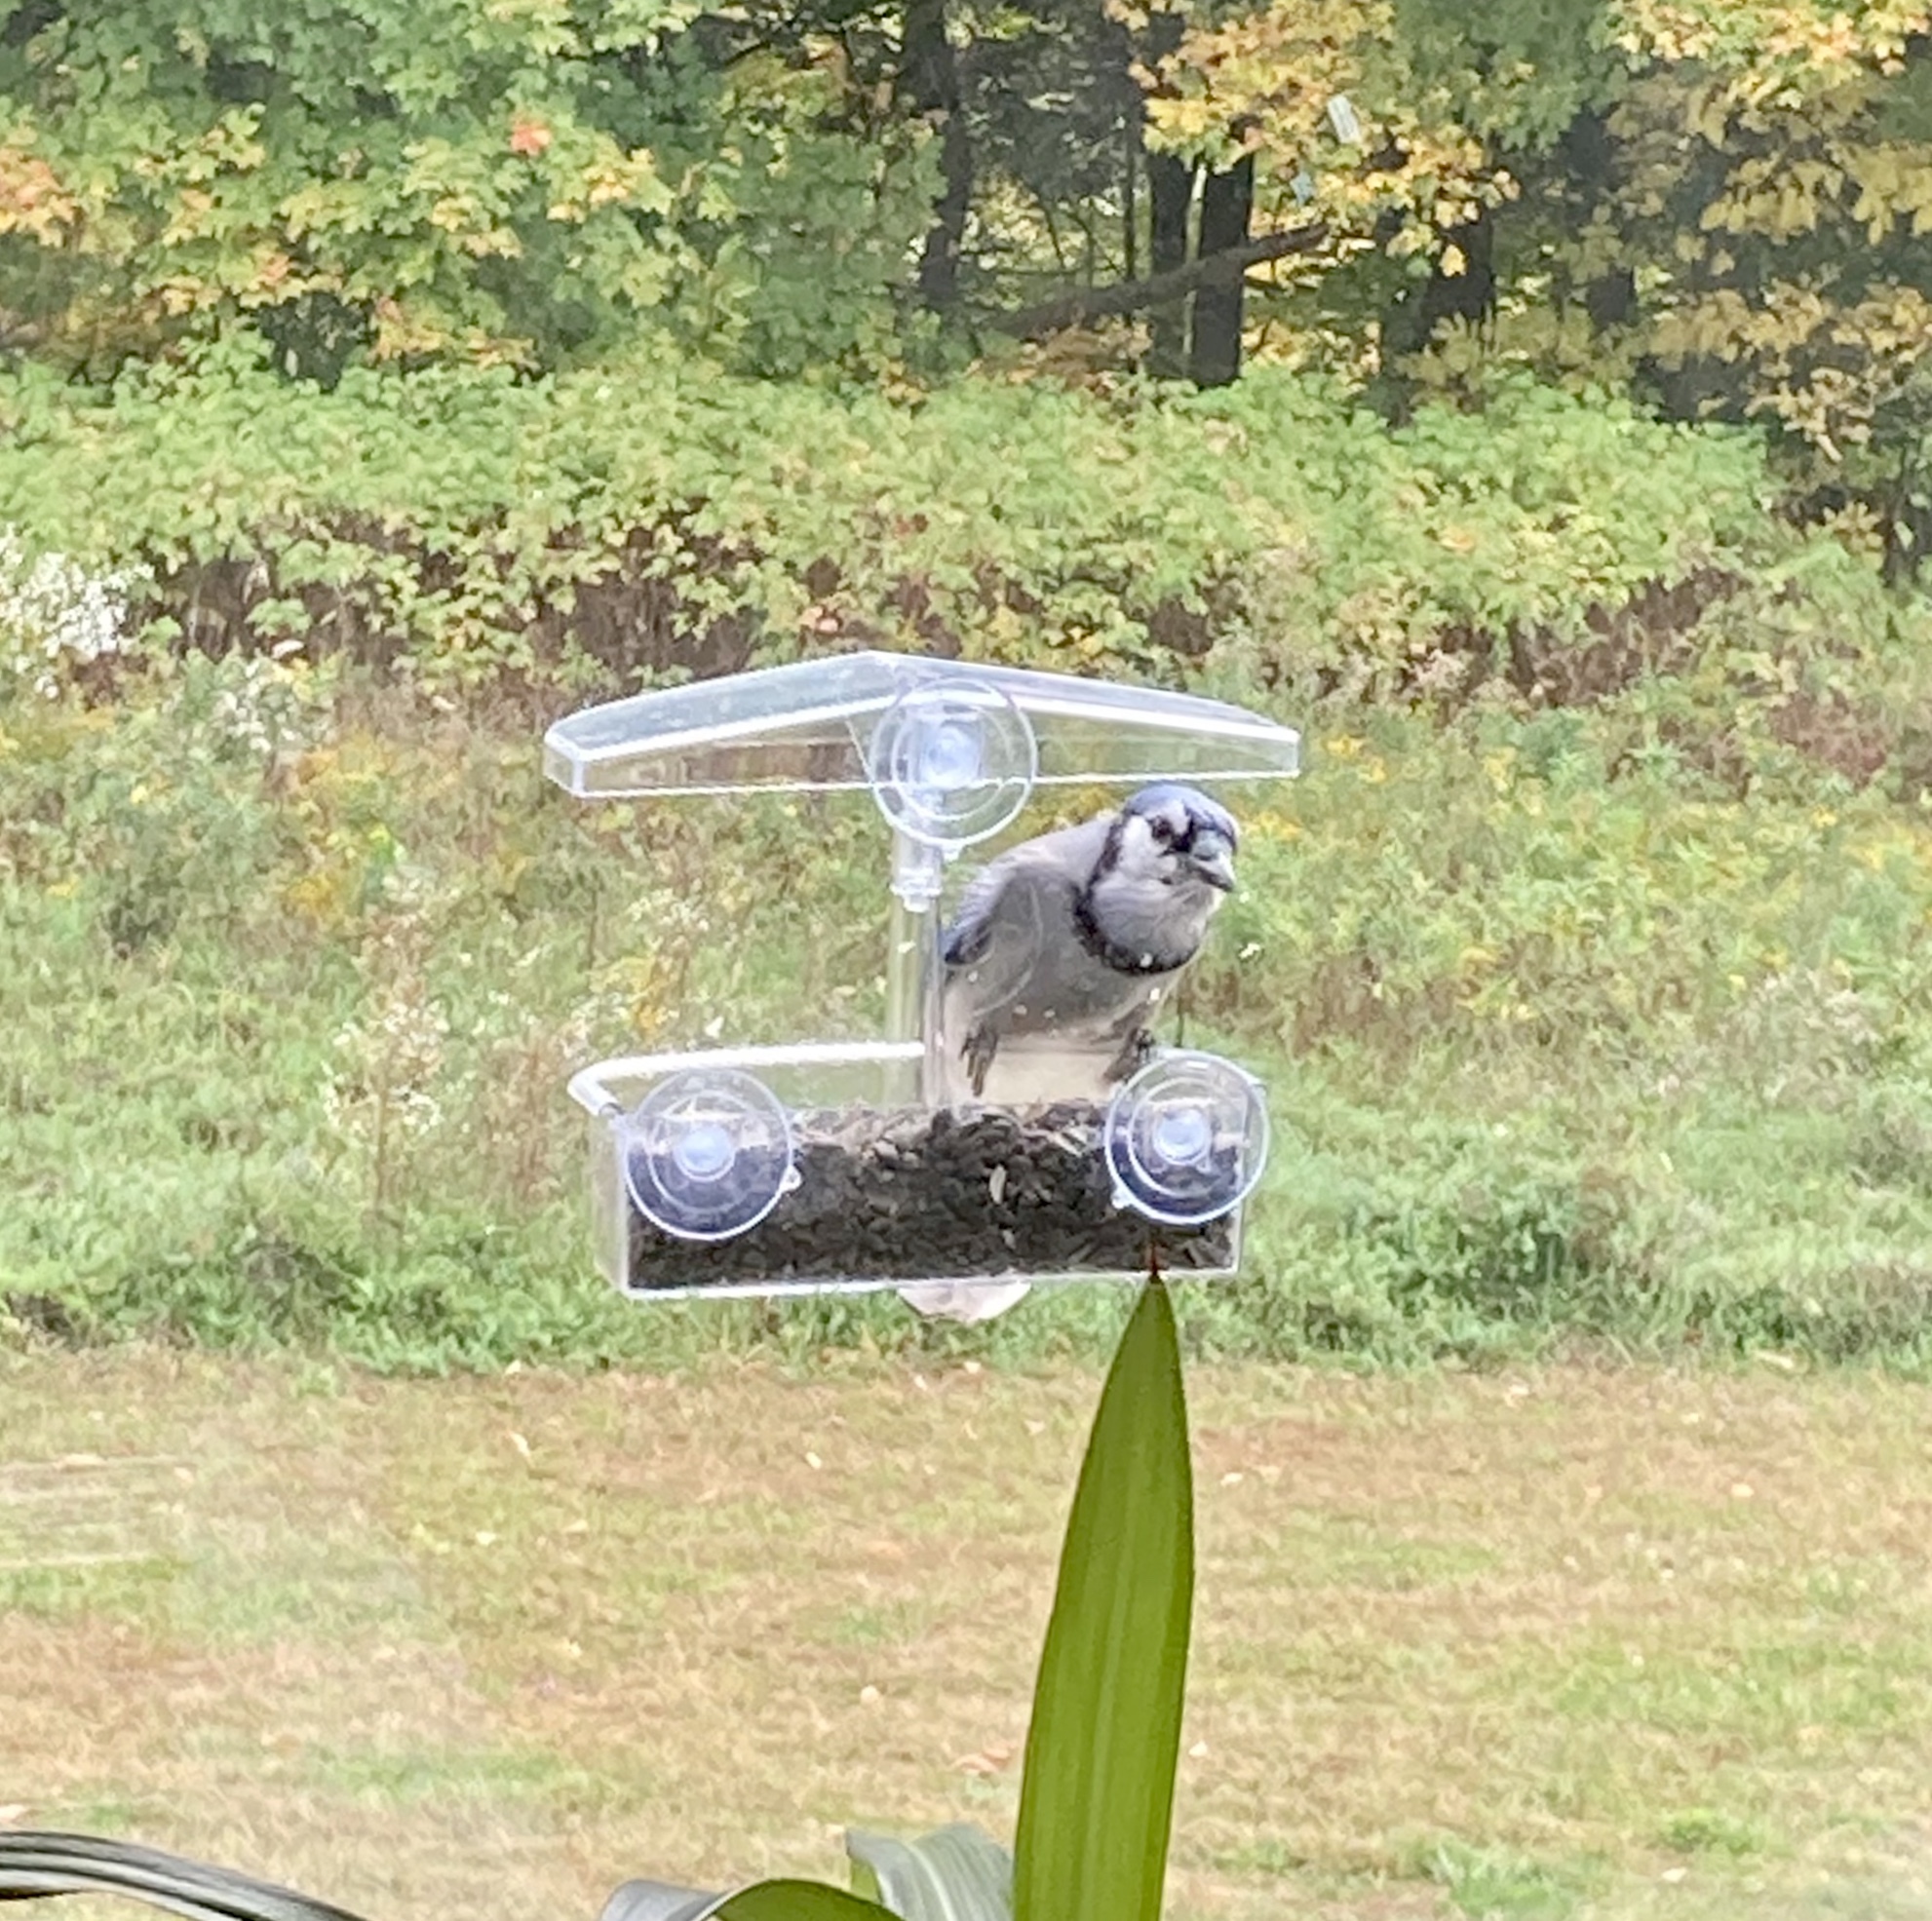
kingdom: Animalia
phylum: Chordata
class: Aves
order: Passeriformes
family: Corvidae
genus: Cyanocitta
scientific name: Cyanocitta cristata
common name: Blue jay
